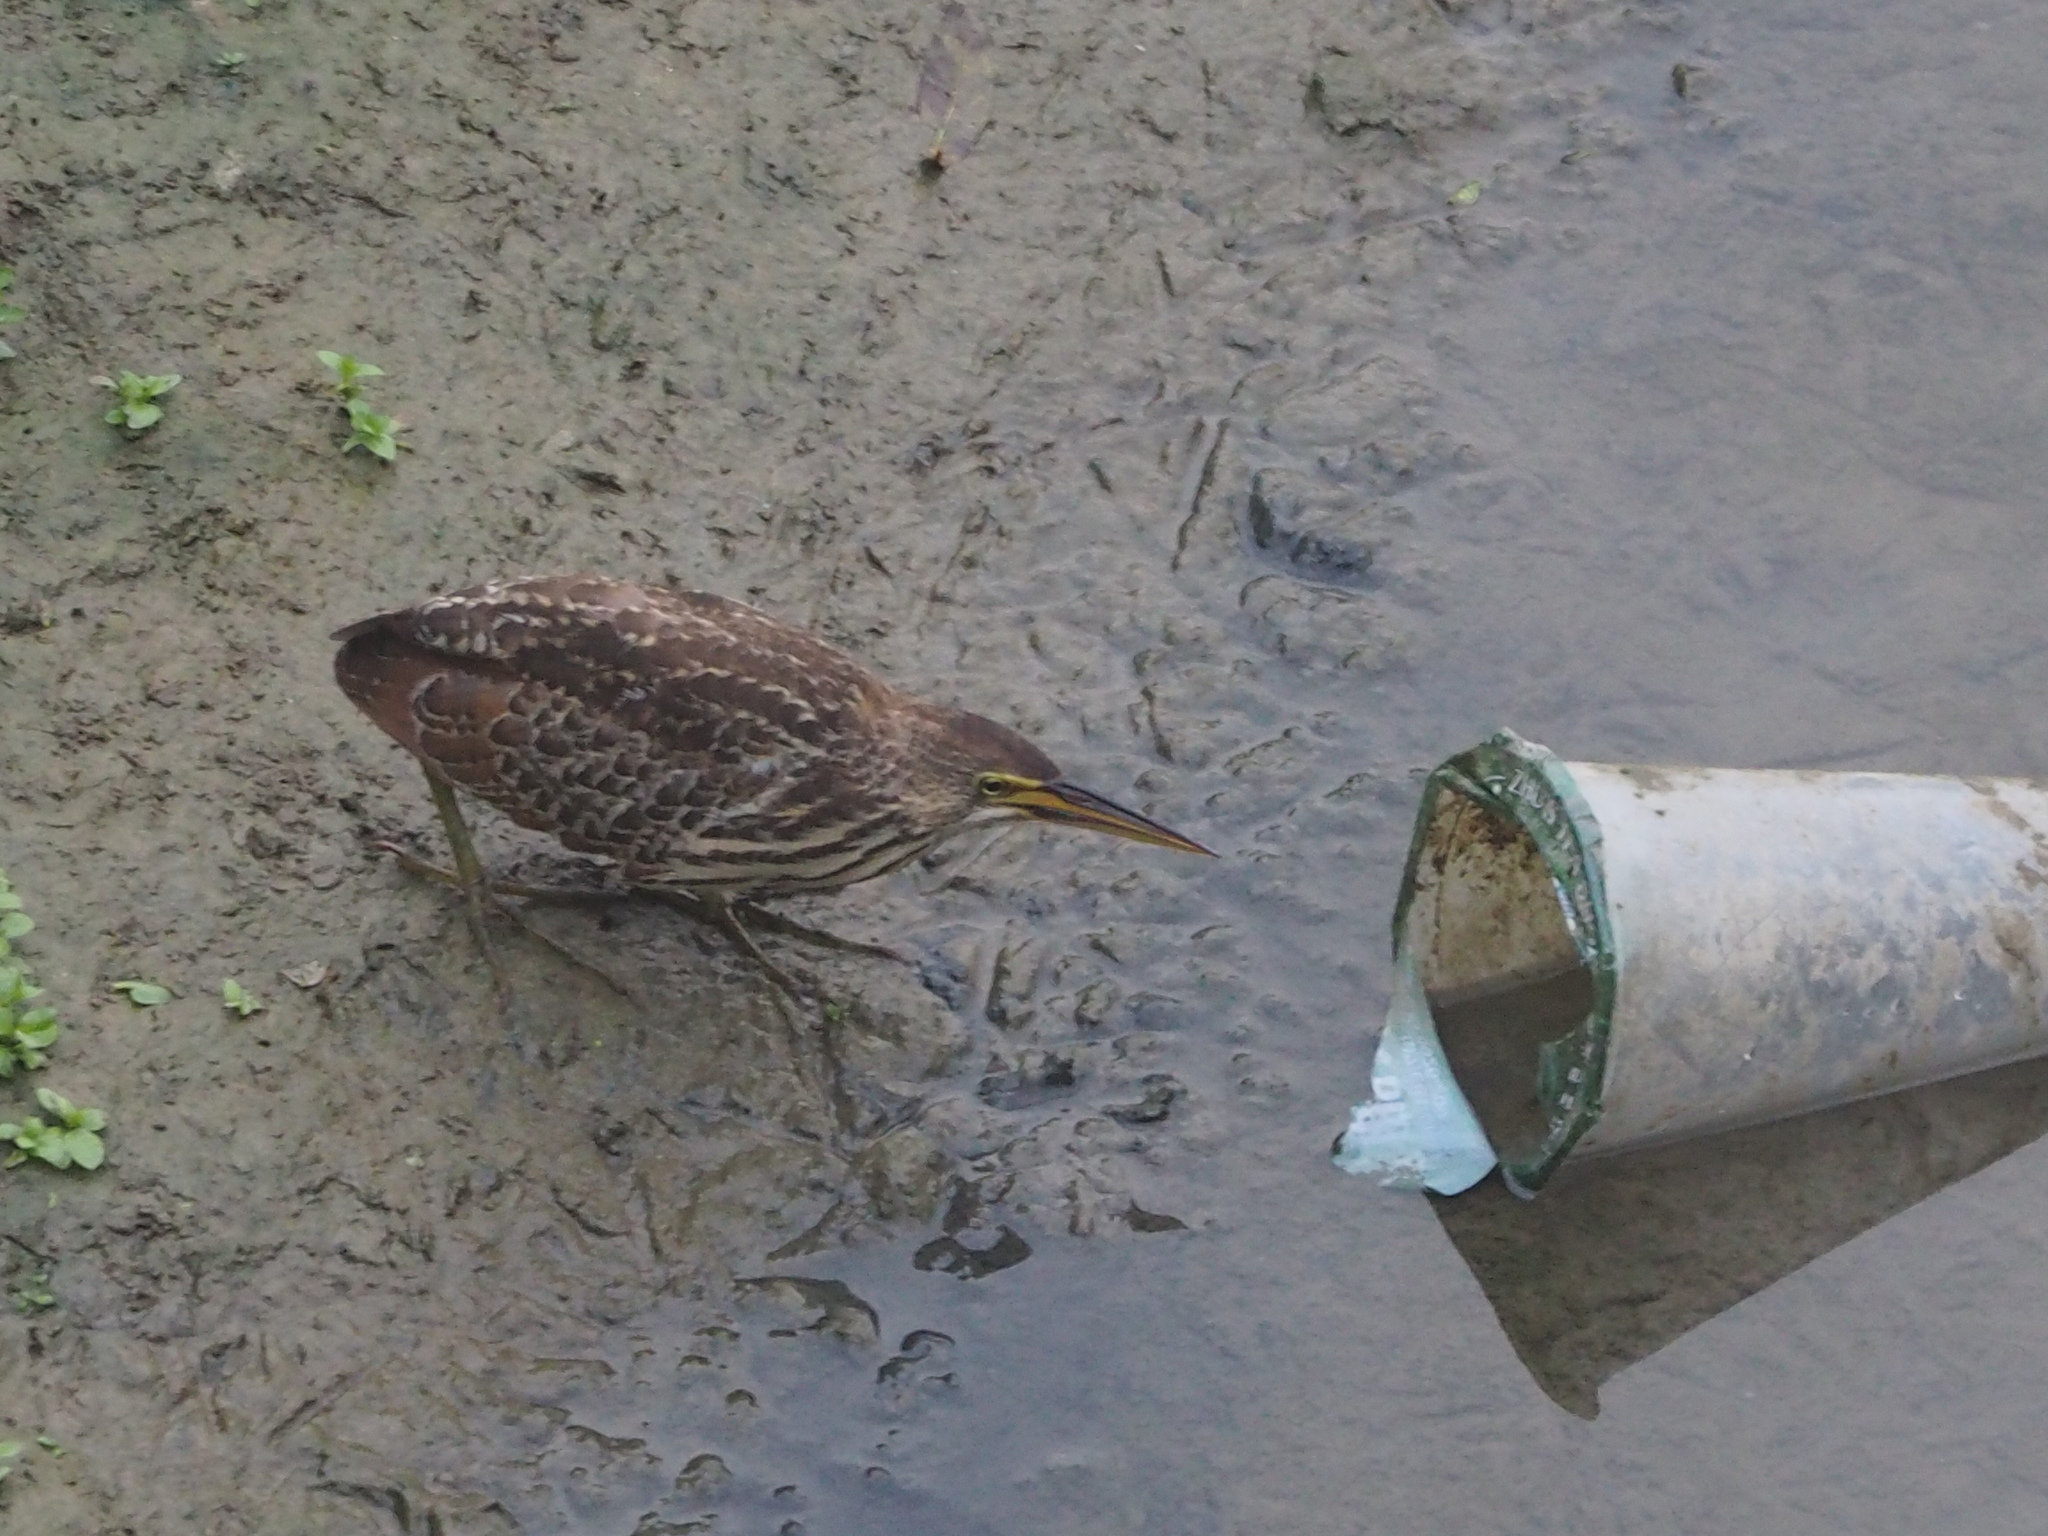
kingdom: Animalia
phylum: Chordata
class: Aves
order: Pelecaniformes
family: Ardeidae
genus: Ixobrychus
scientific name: Ixobrychus cinnamomeus
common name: Cinnamon bittern
